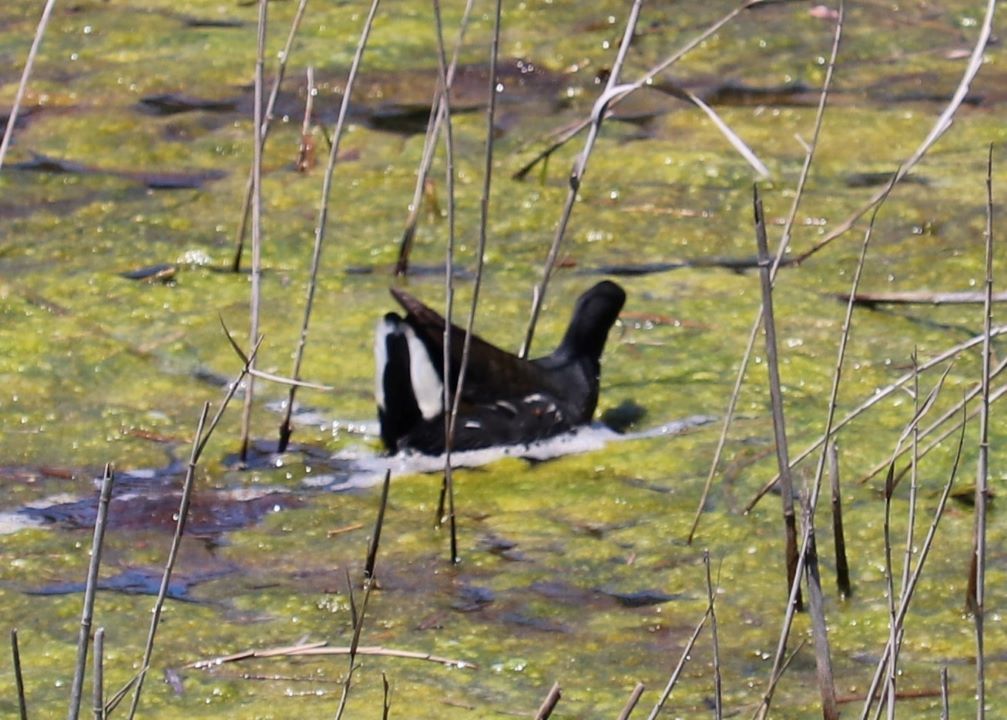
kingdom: Animalia
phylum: Chordata
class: Aves
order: Gruiformes
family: Rallidae
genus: Gallinula
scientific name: Gallinula chloropus
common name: Common moorhen
